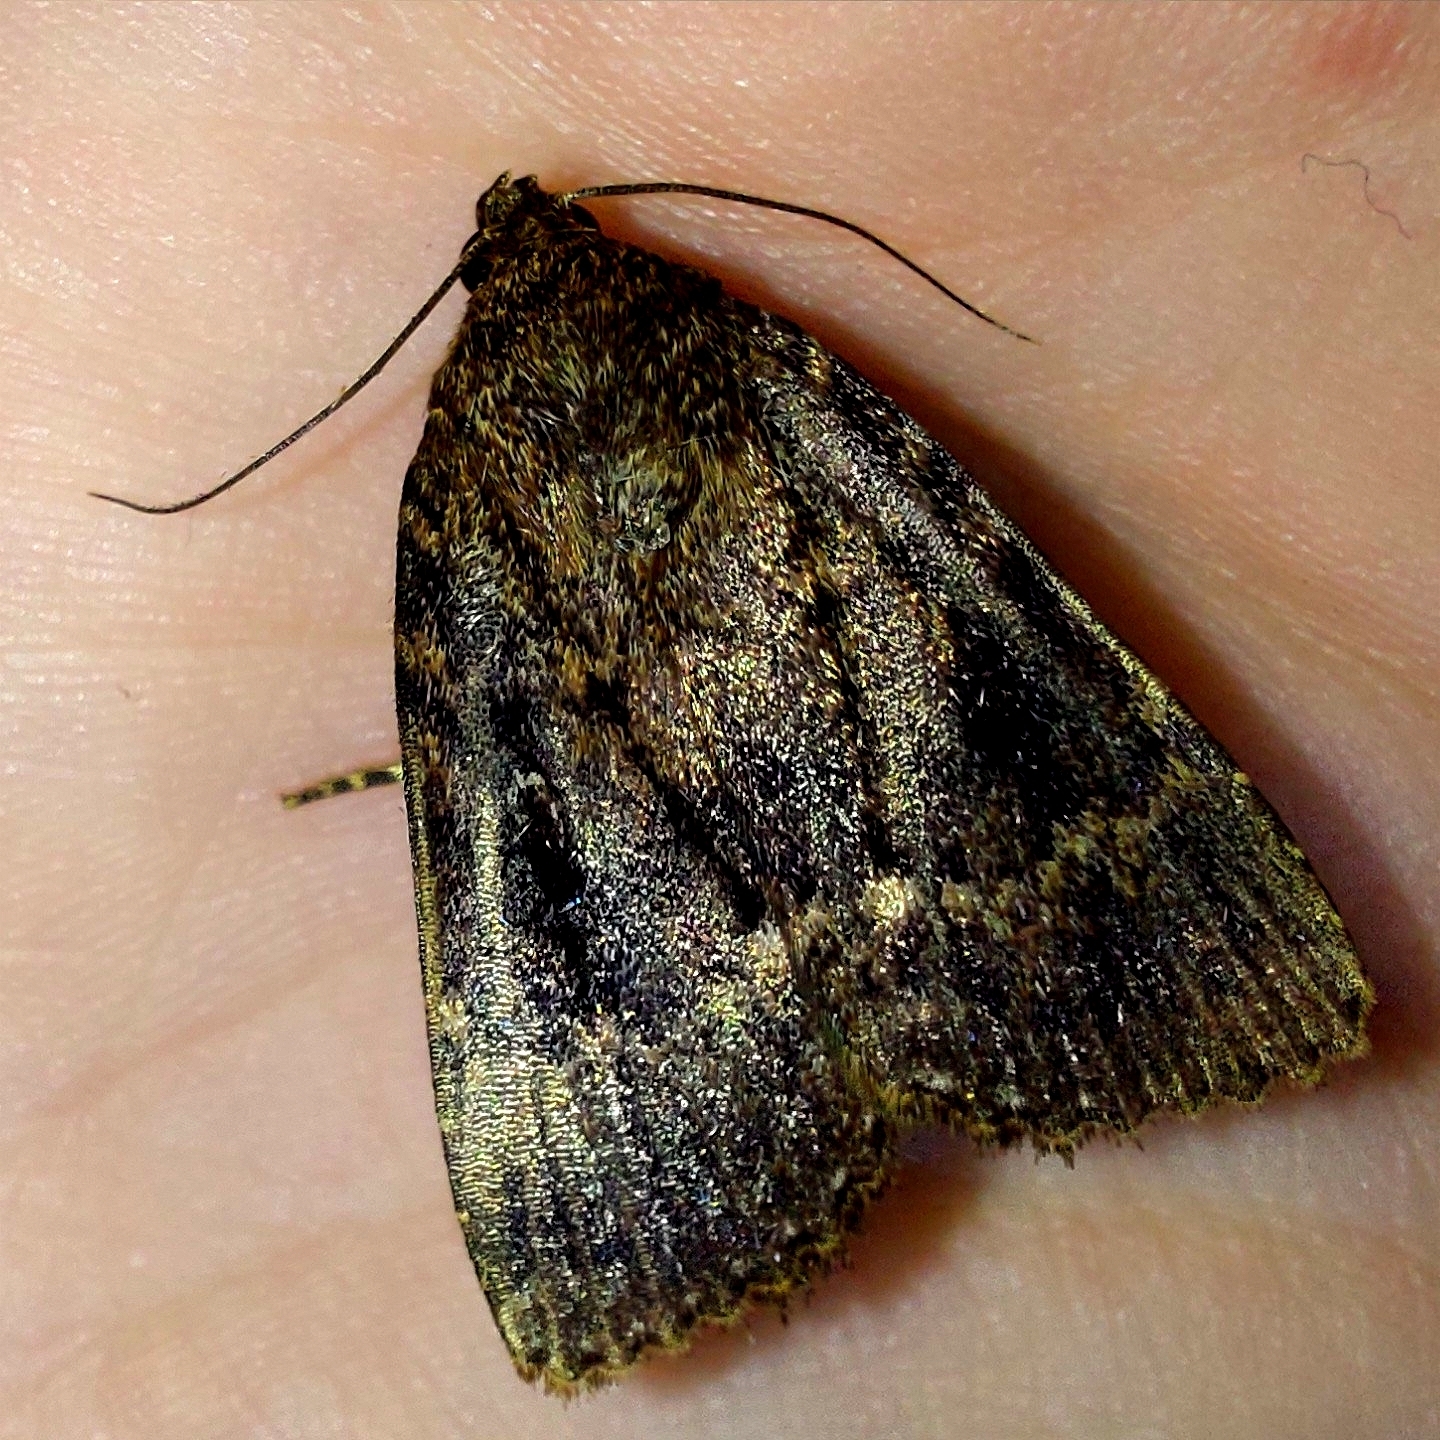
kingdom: Animalia
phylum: Arthropoda
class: Insecta
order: Lepidoptera
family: Noctuidae
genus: Amphipyra
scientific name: Amphipyra pyramidea
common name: Copper underwing
